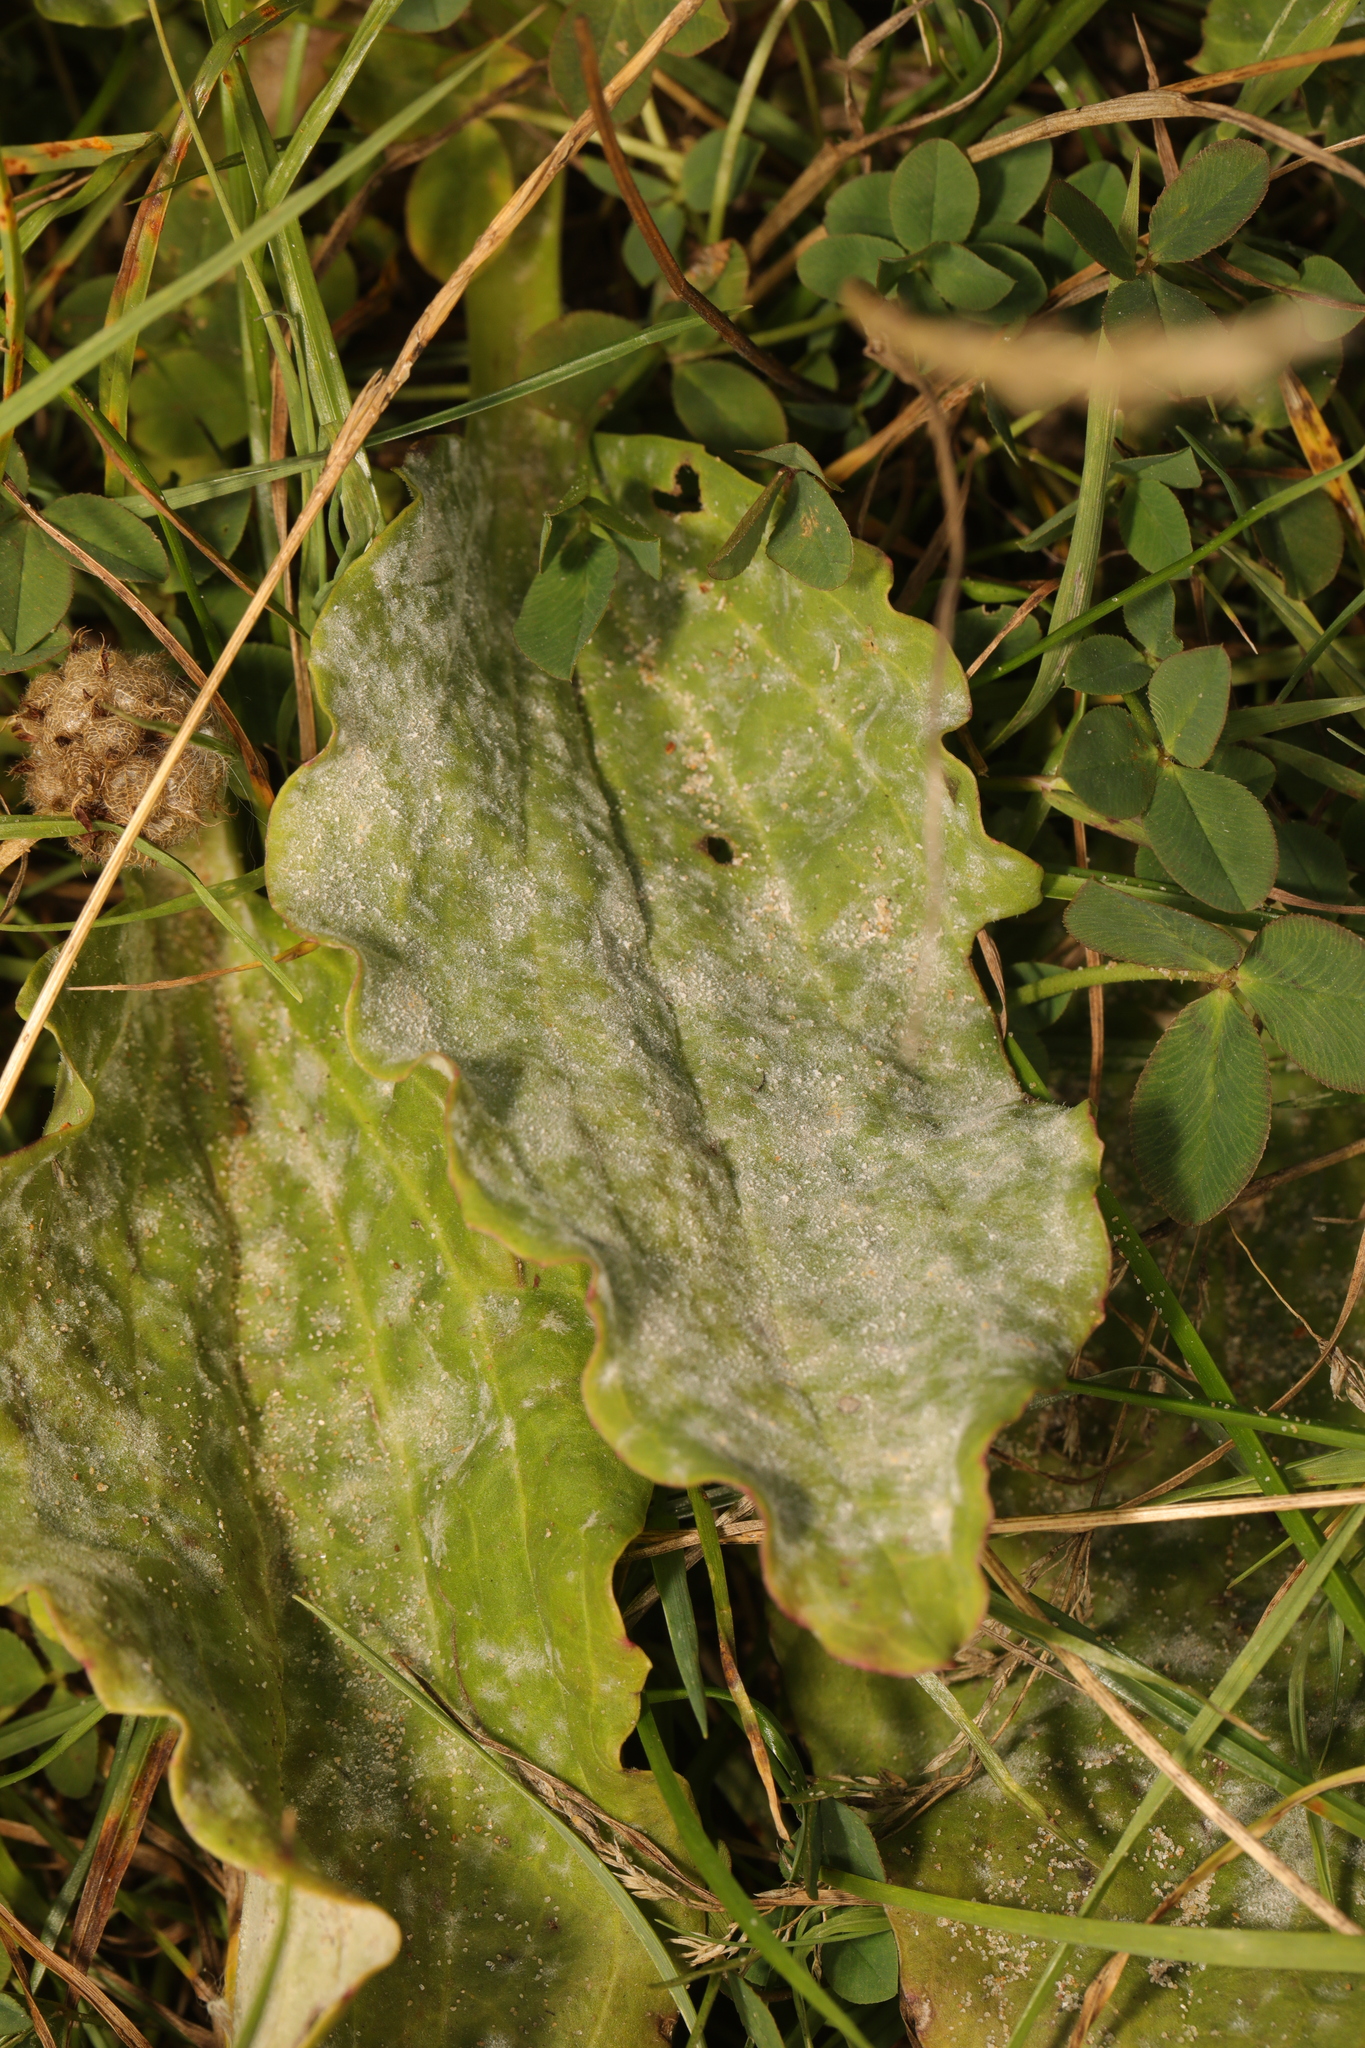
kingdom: Fungi
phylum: Ascomycota
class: Leotiomycetes
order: Helotiales
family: Erysiphaceae
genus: Golovinomyces
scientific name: Golovinomyces sordidus
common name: Plantain mildew
